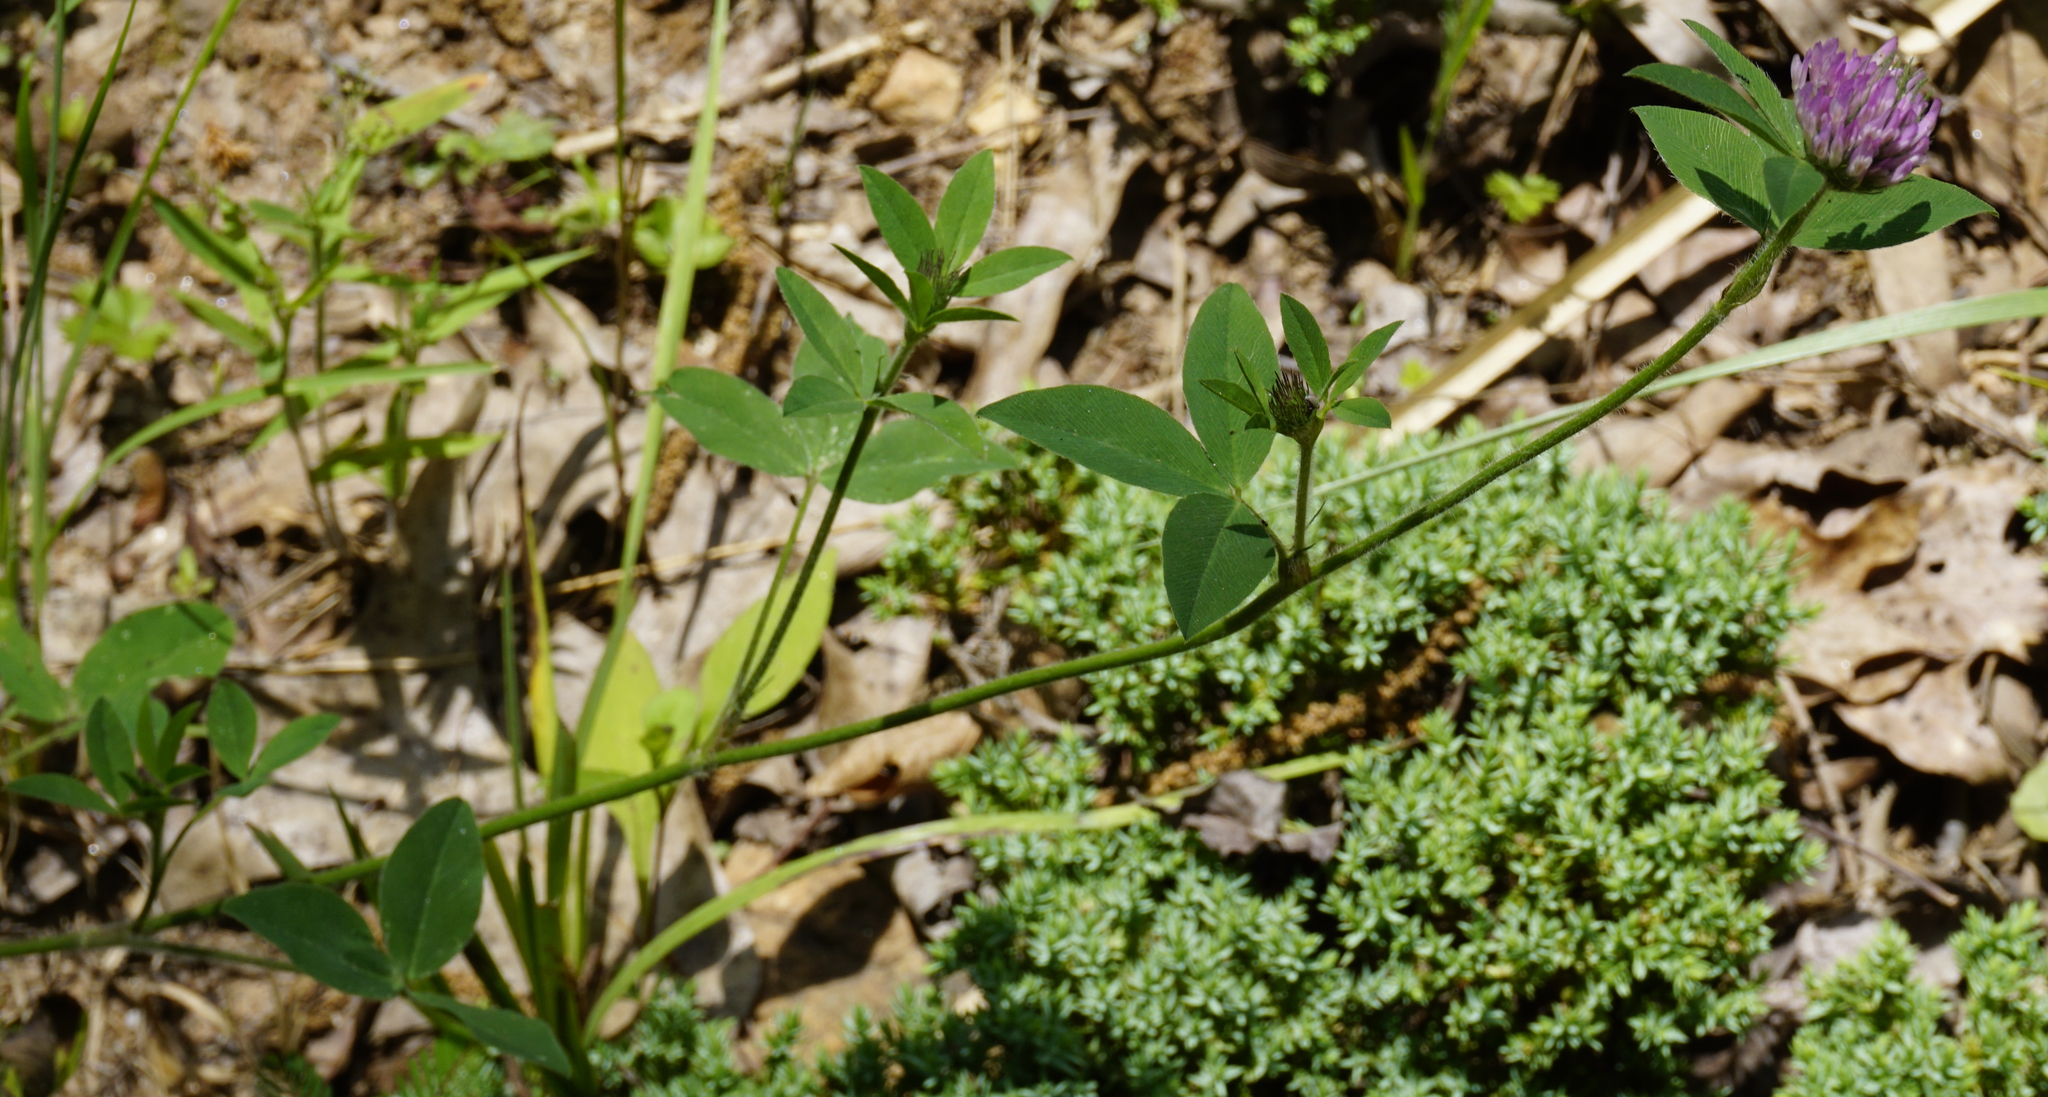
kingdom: Plantae
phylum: Tracheophyta
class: Magnoliopsida
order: Fabales
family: Fabaceae
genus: Trifolium
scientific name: Trifolium pratense
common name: Red clover
